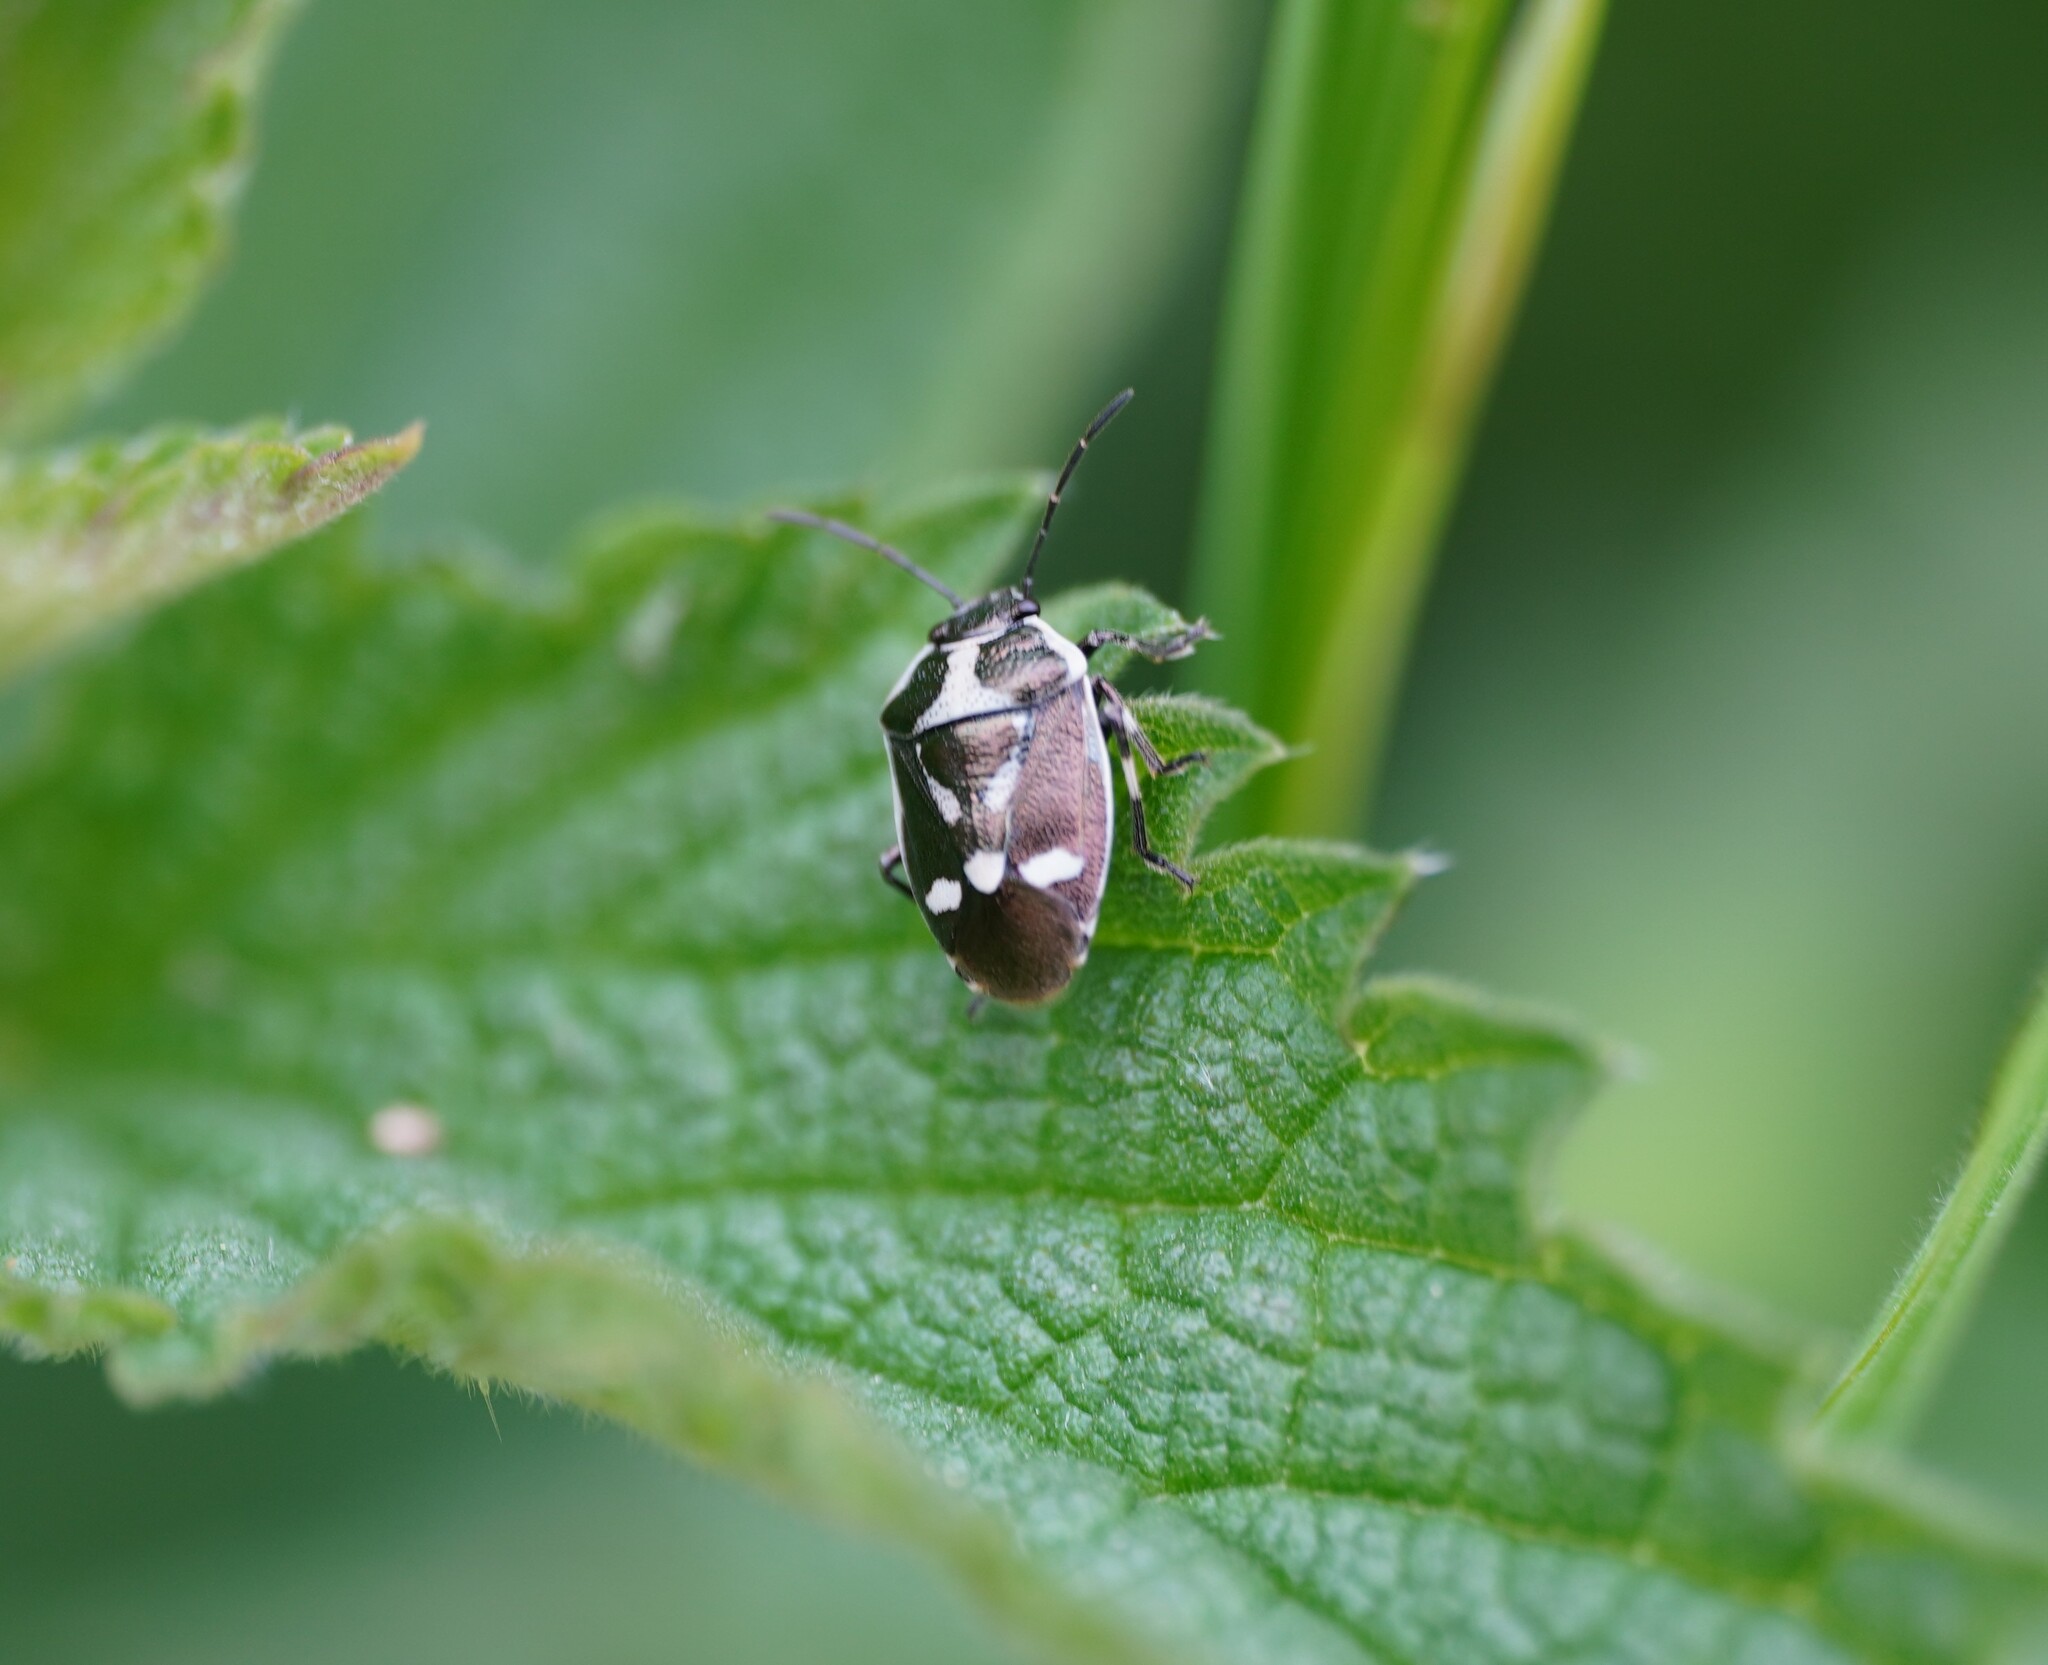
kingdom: Animalia
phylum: Arthropoda
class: Insecta
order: Hemiptera
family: Pentatomidae
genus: Eurydema
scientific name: Eurydema oleracea
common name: Cabbage bug
